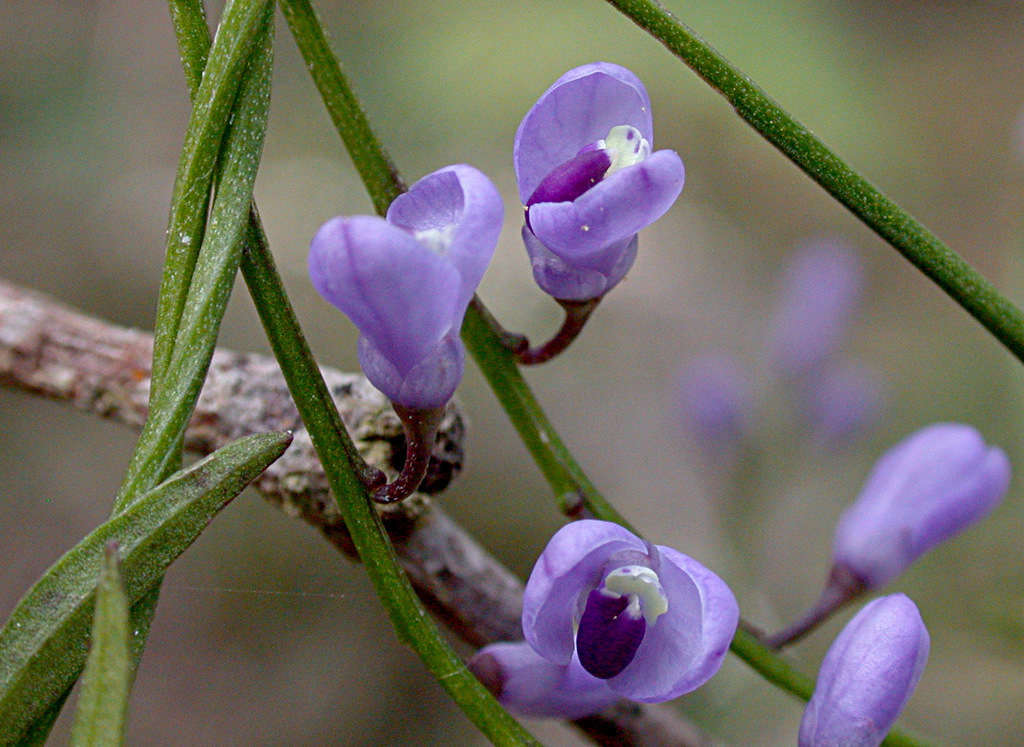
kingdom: Plantae
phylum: Tracheophyta
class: Magnoliopsida
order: Fabales
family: Polygalaceae
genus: Comesperma
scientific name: Comesperma volubile
